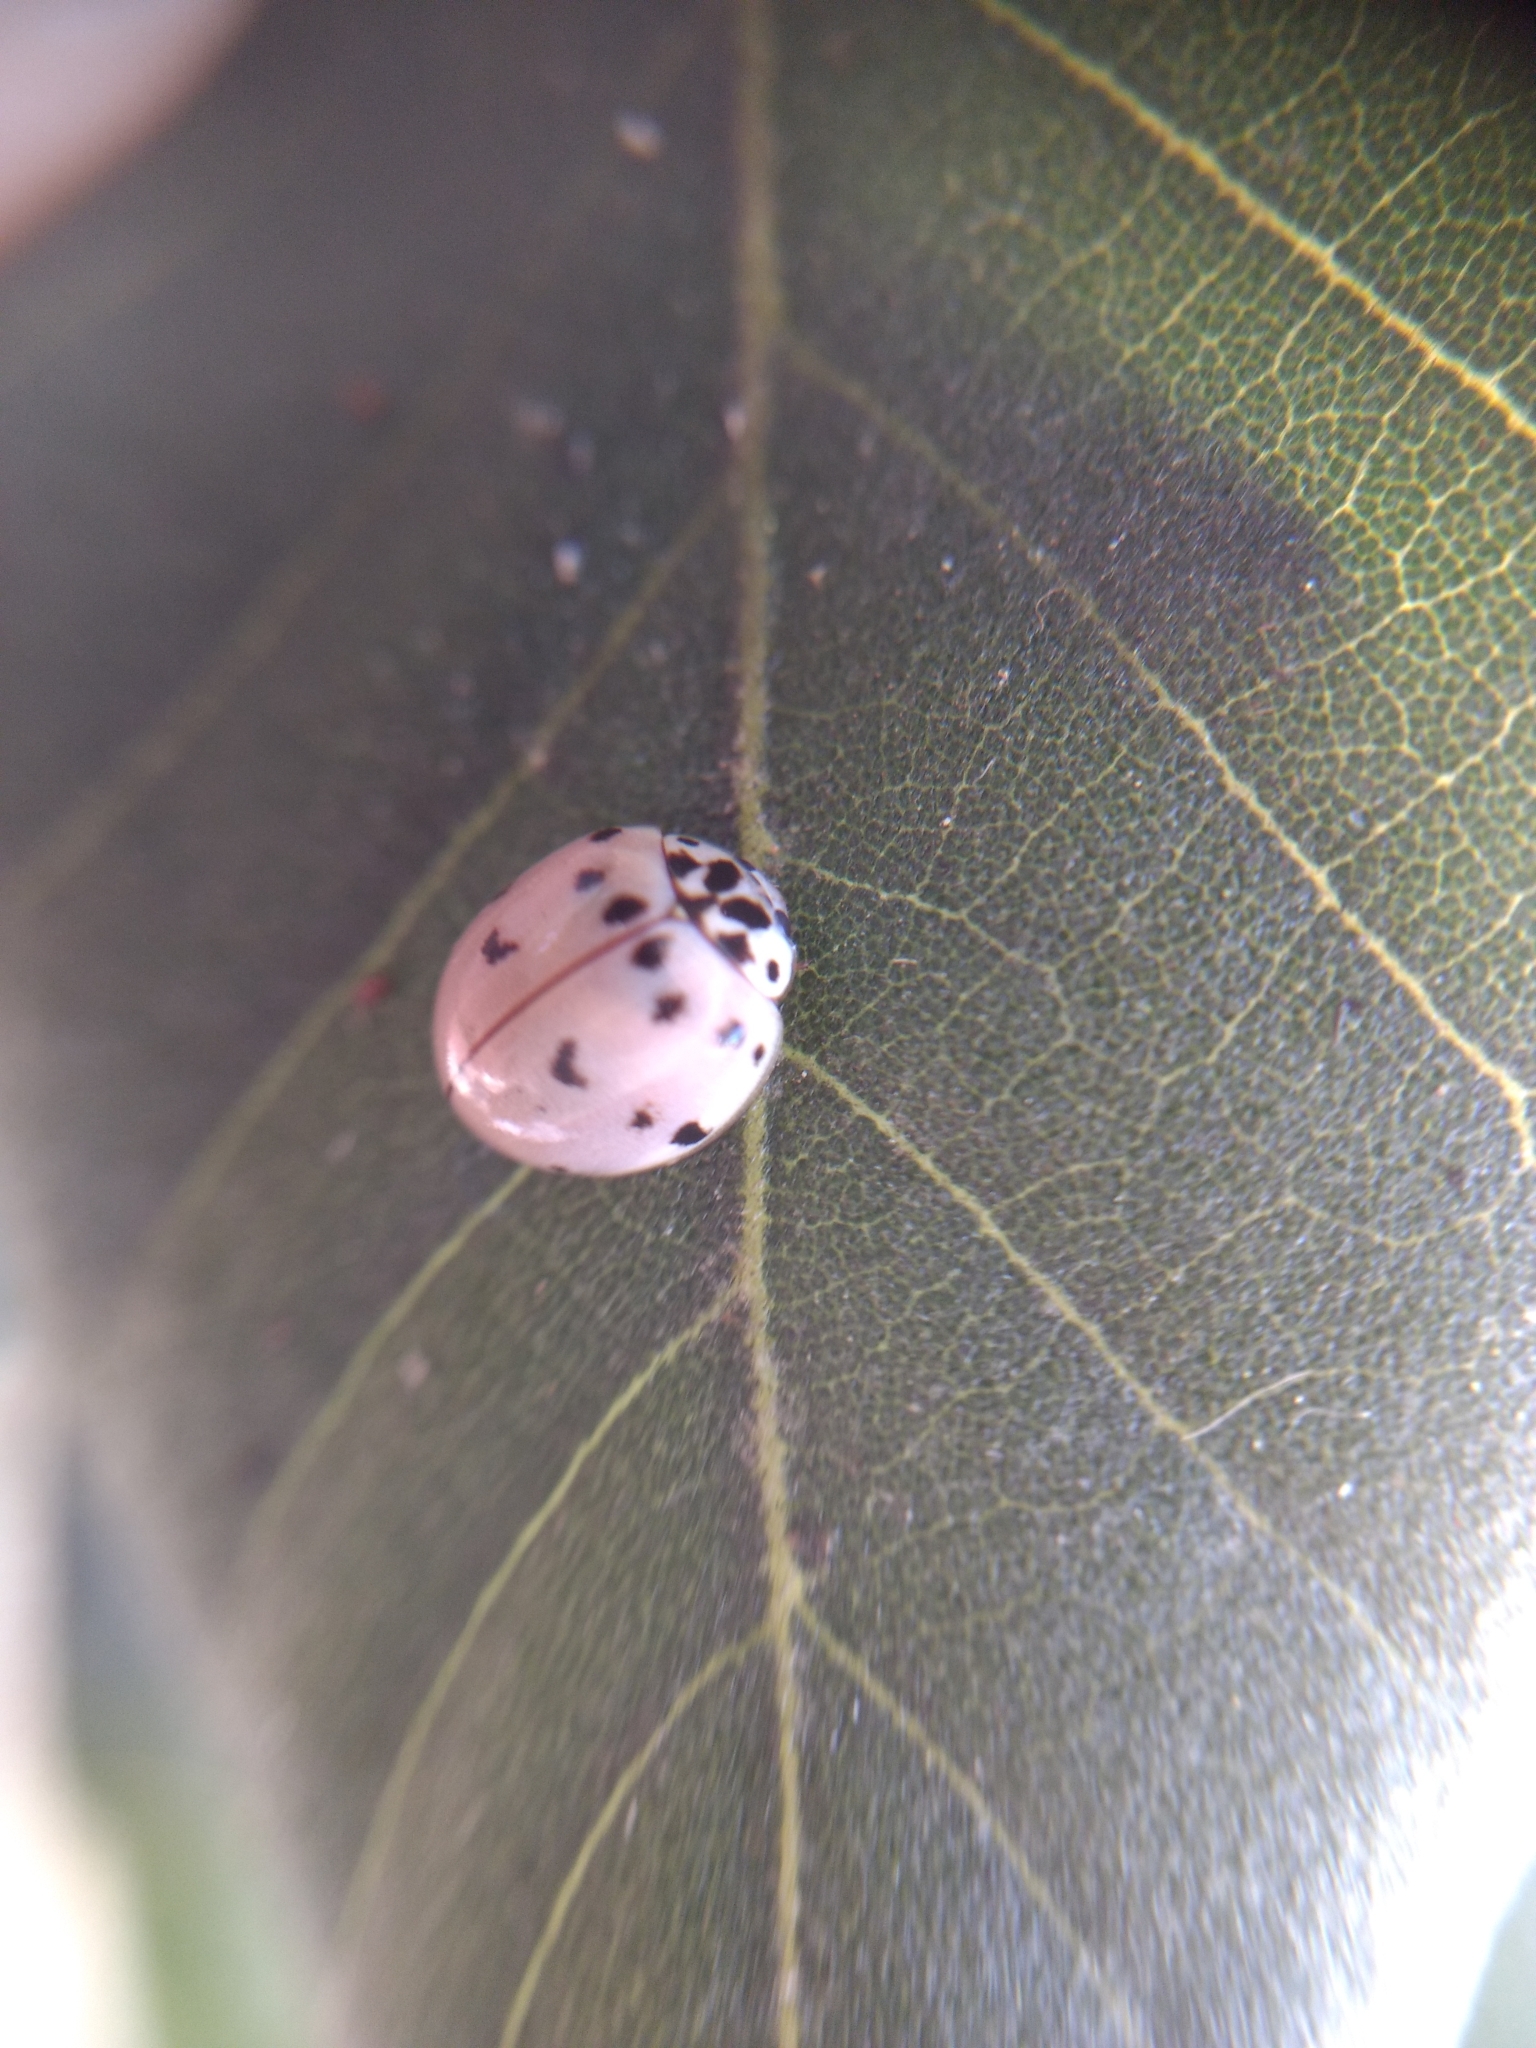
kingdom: Animalia
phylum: Arthropoda
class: Insecta
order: Coleoptera
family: Coccinellidae
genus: Olla
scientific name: Olla v-nigrum
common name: Ashy gray lady beetle
